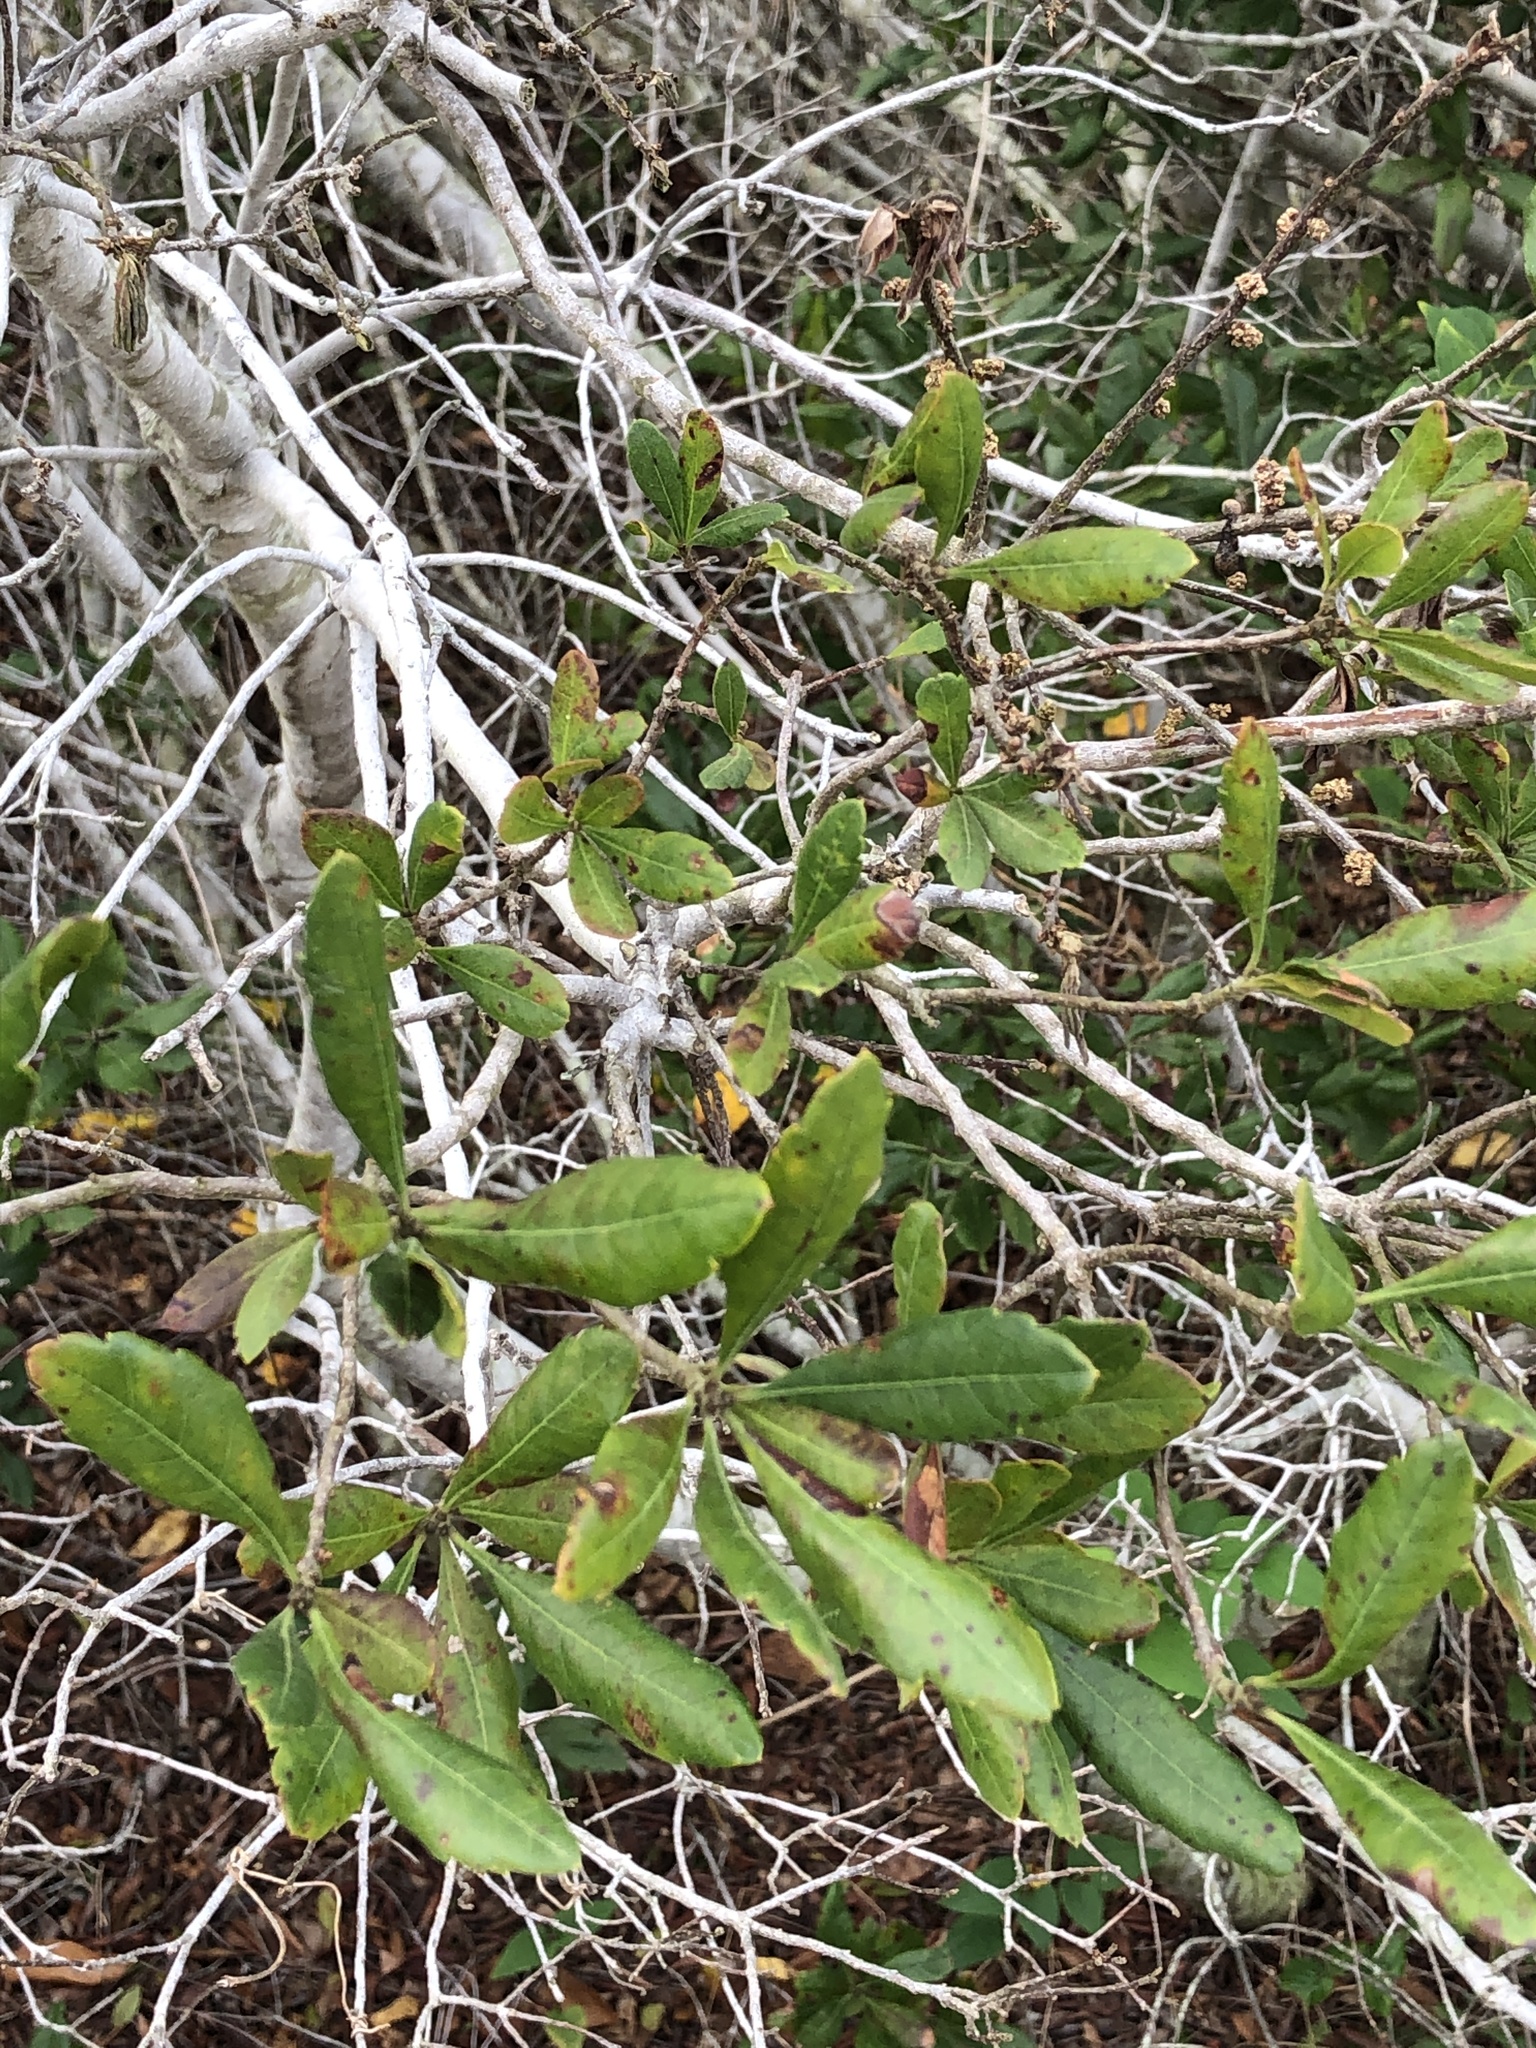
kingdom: Plantae
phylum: Tracheophyta
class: Magnoliopsida
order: Fagales
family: Myricaceae
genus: Morella
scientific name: Morella pensylvanica
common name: Northern bayberry
